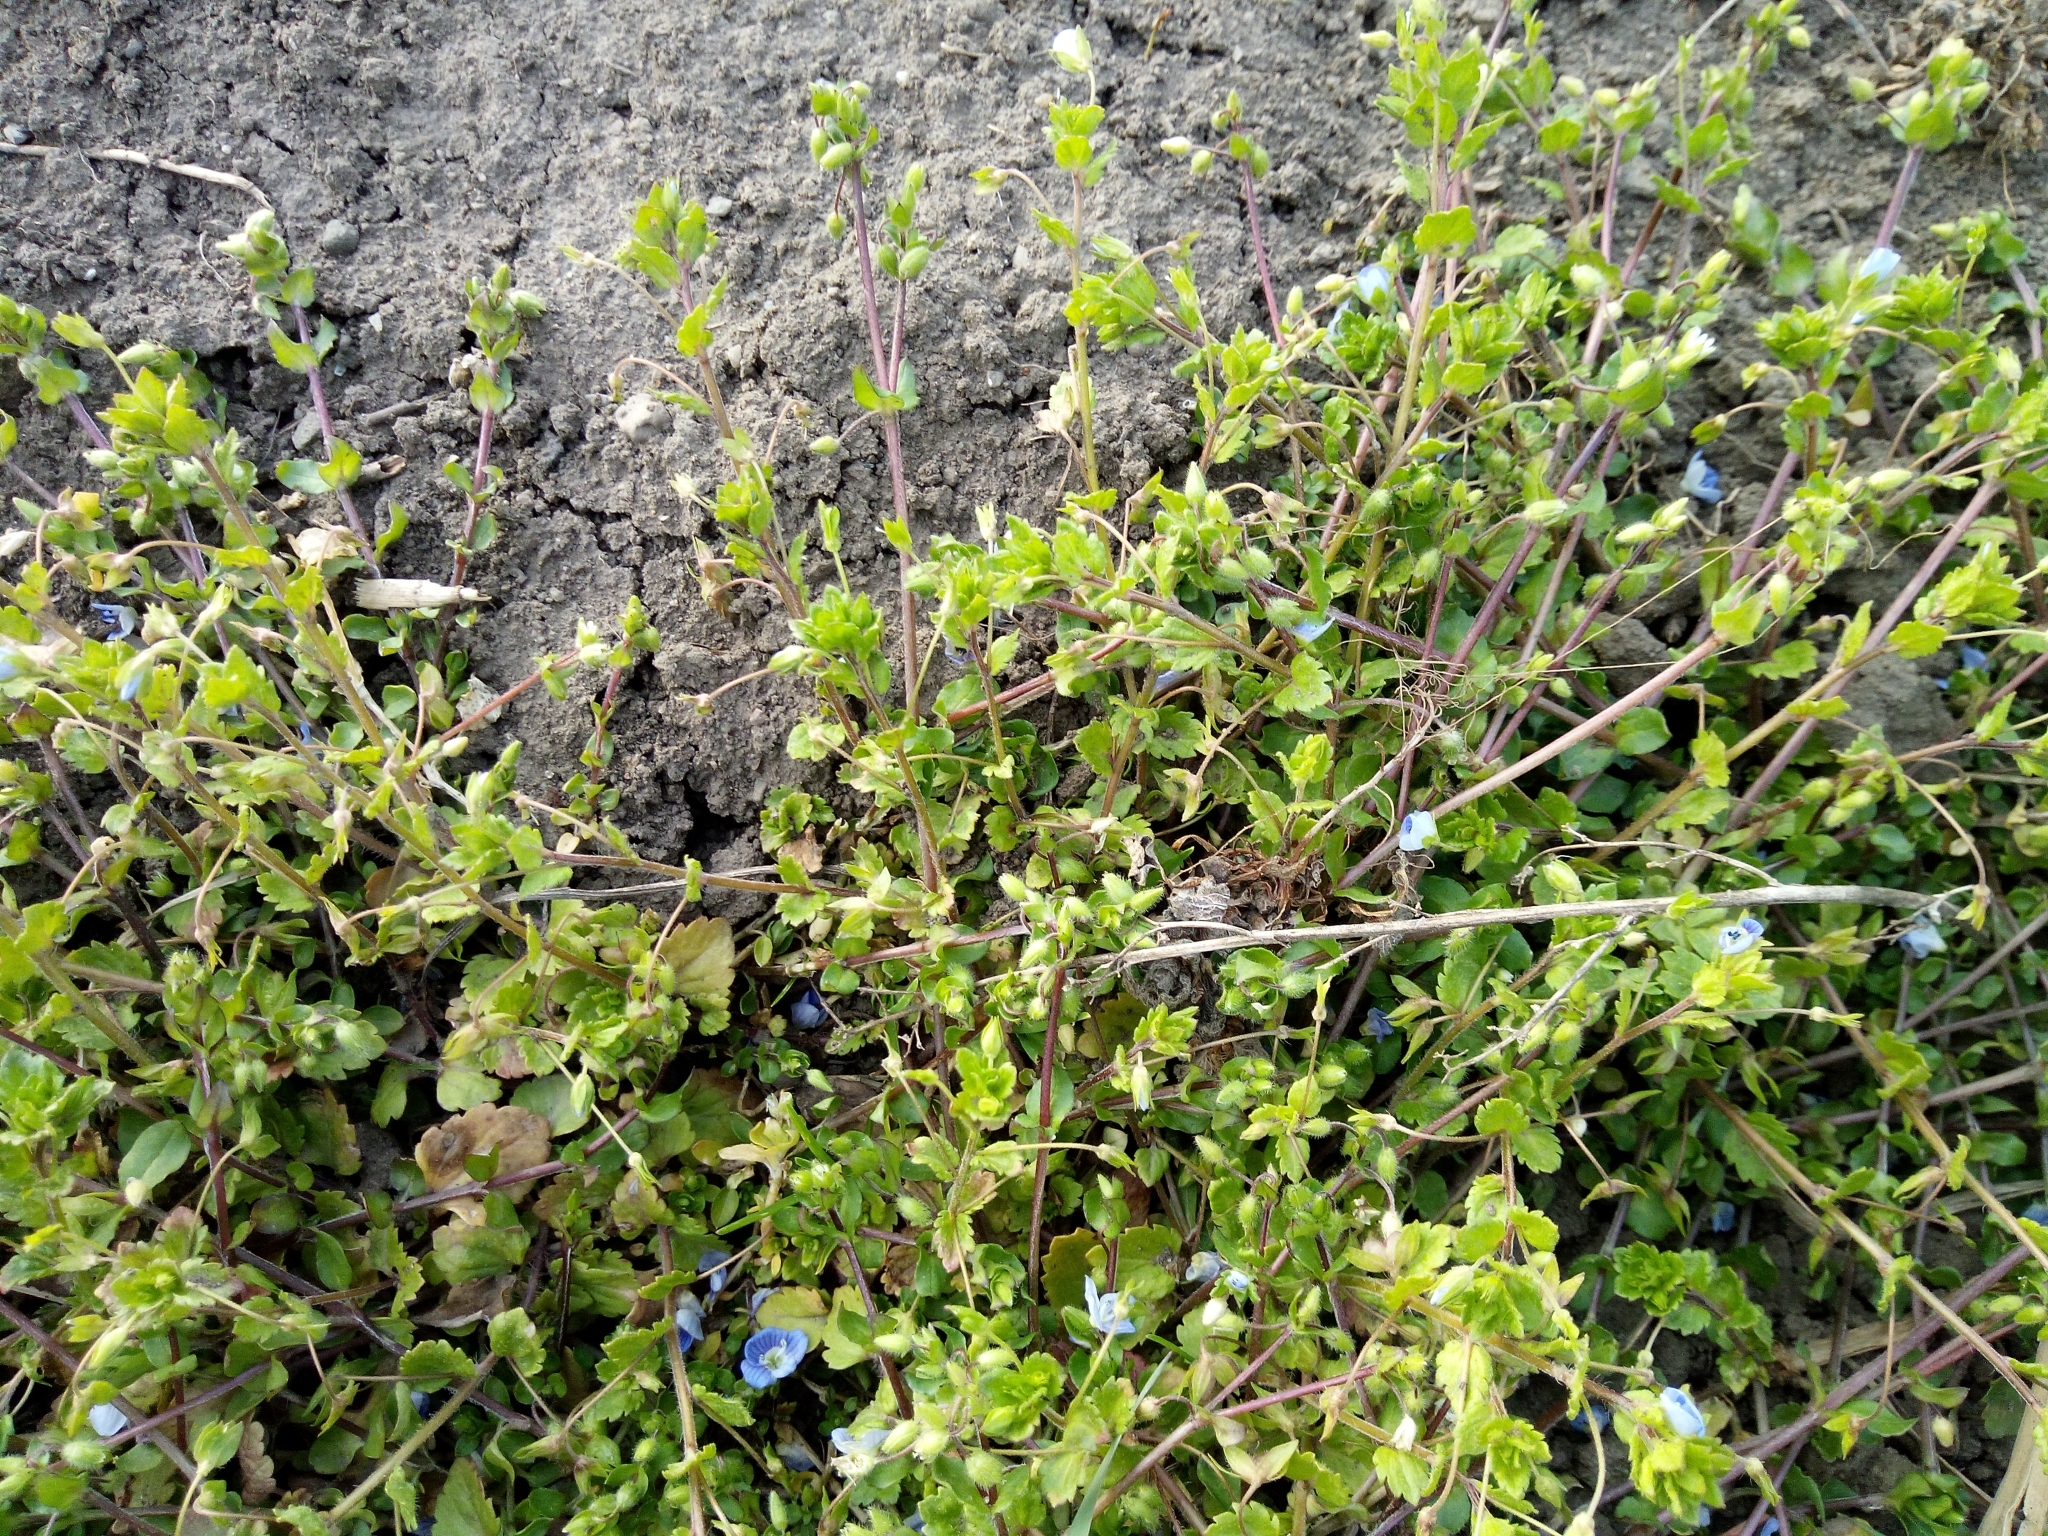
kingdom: Plantae
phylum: Tracheophyta
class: Magnoliopsida
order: Lamiales
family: Plantaginaceae
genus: Veronica
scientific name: Veronica persica
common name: Common field-speedwell
